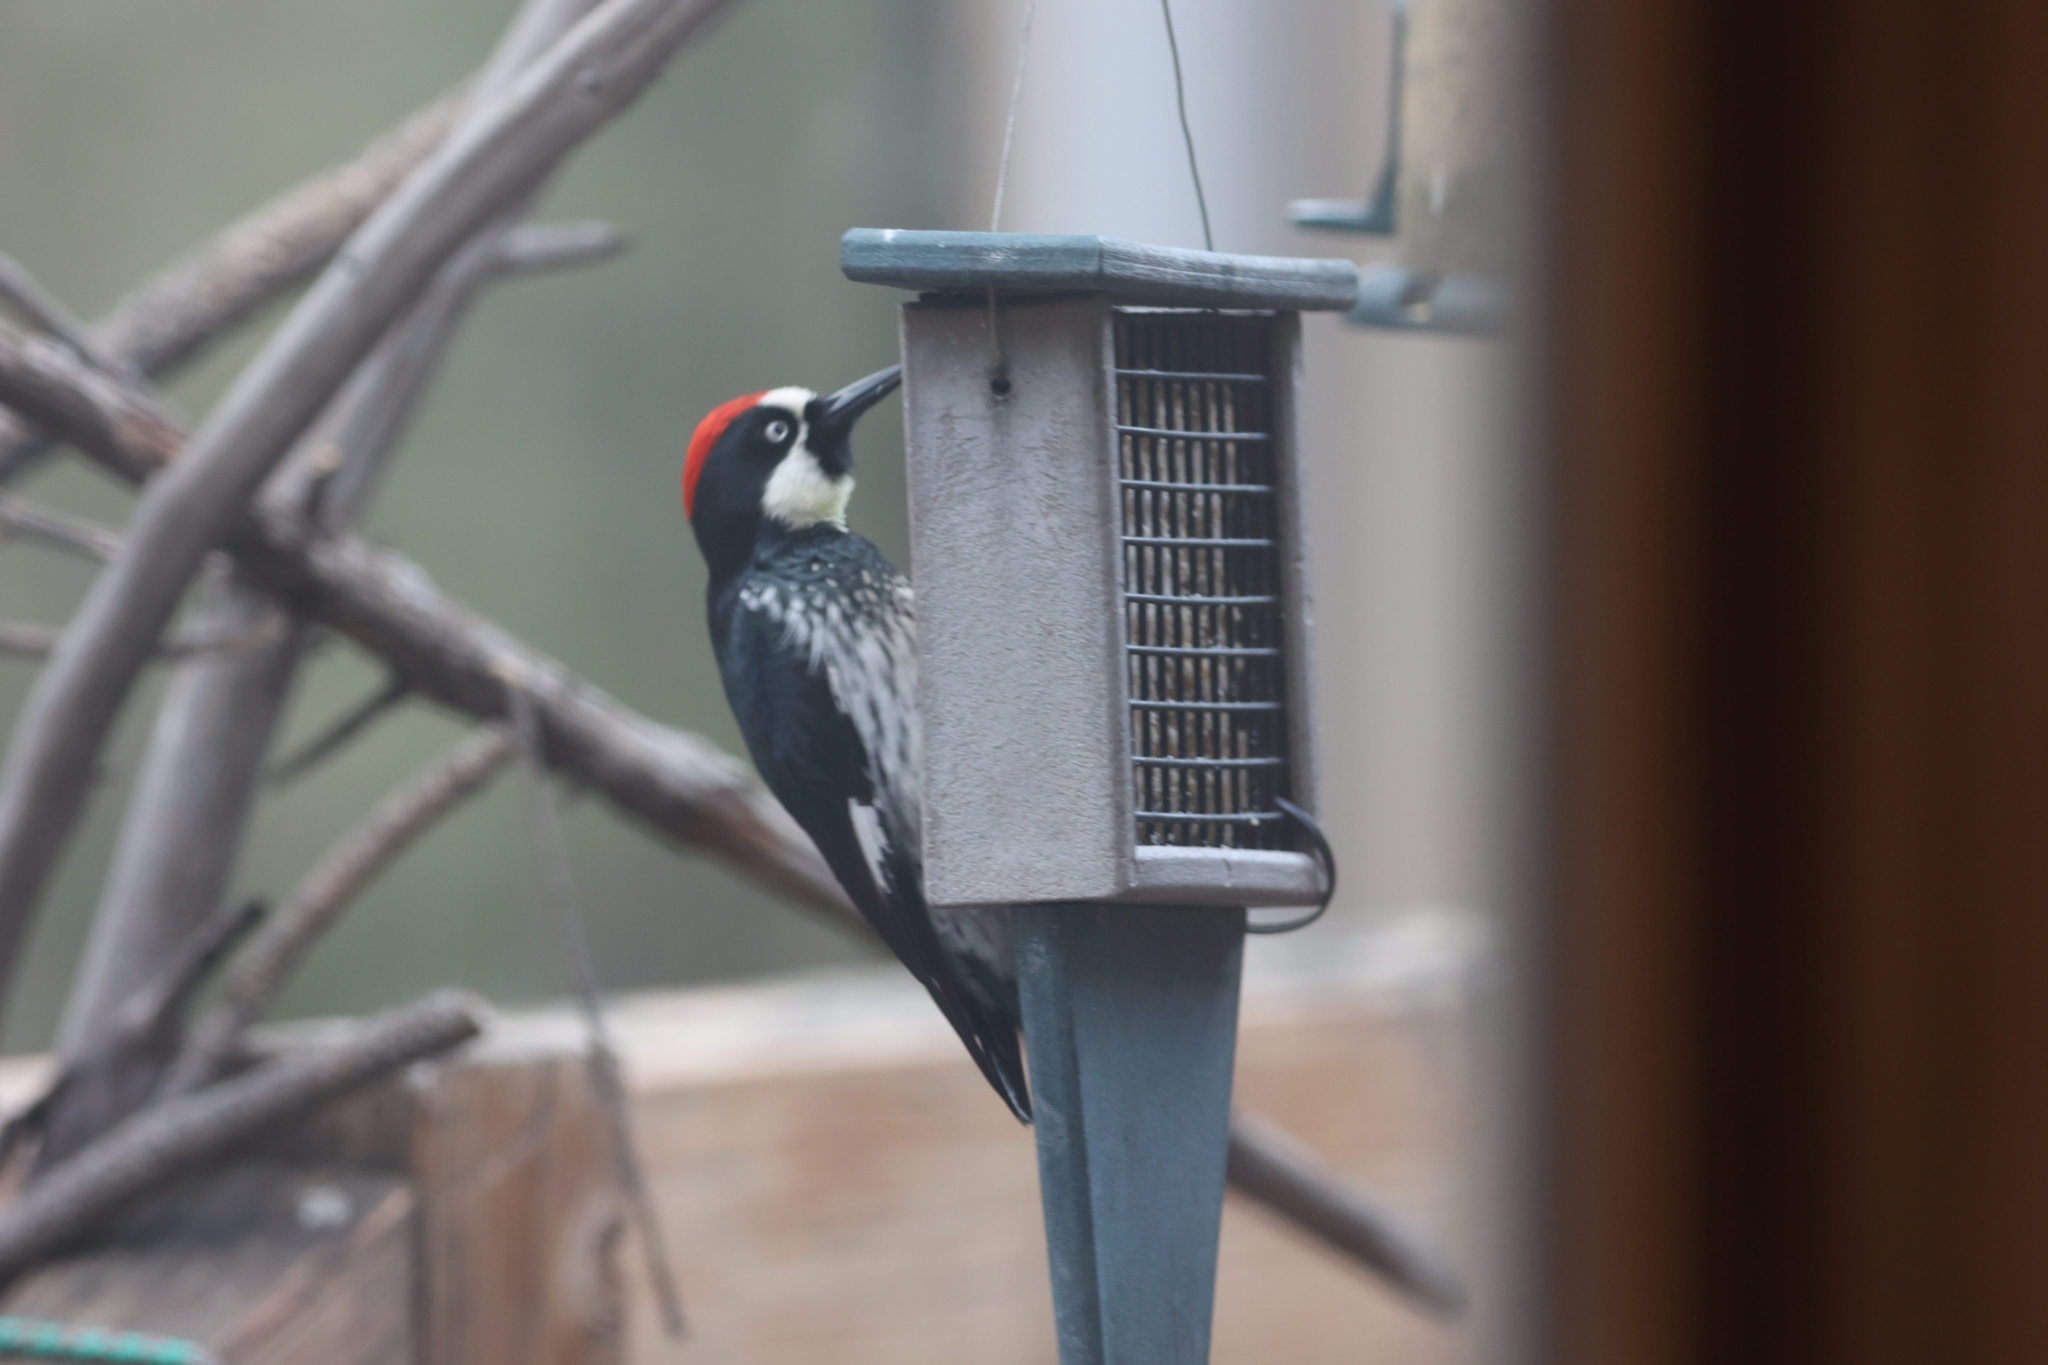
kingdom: Animalia
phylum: Chordata
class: Aves
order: Piciformes
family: Picidae
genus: Melanerpes
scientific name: Melanerpes formicivorus
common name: Acorn woodpecker
